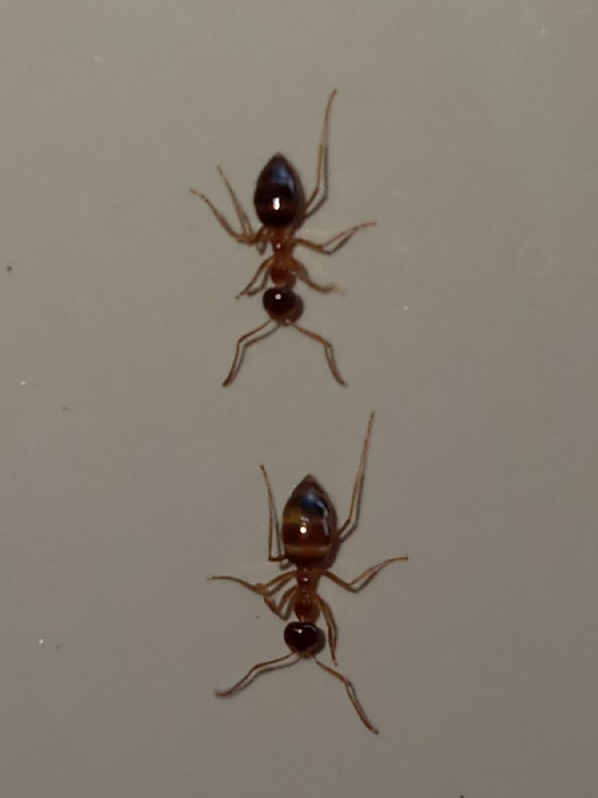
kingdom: Animalia
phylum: Arthropoda
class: Insecta
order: Hymenoptera
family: Formicidae
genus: Prenolepis
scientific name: Prenolepis imparis
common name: Small honey ant
